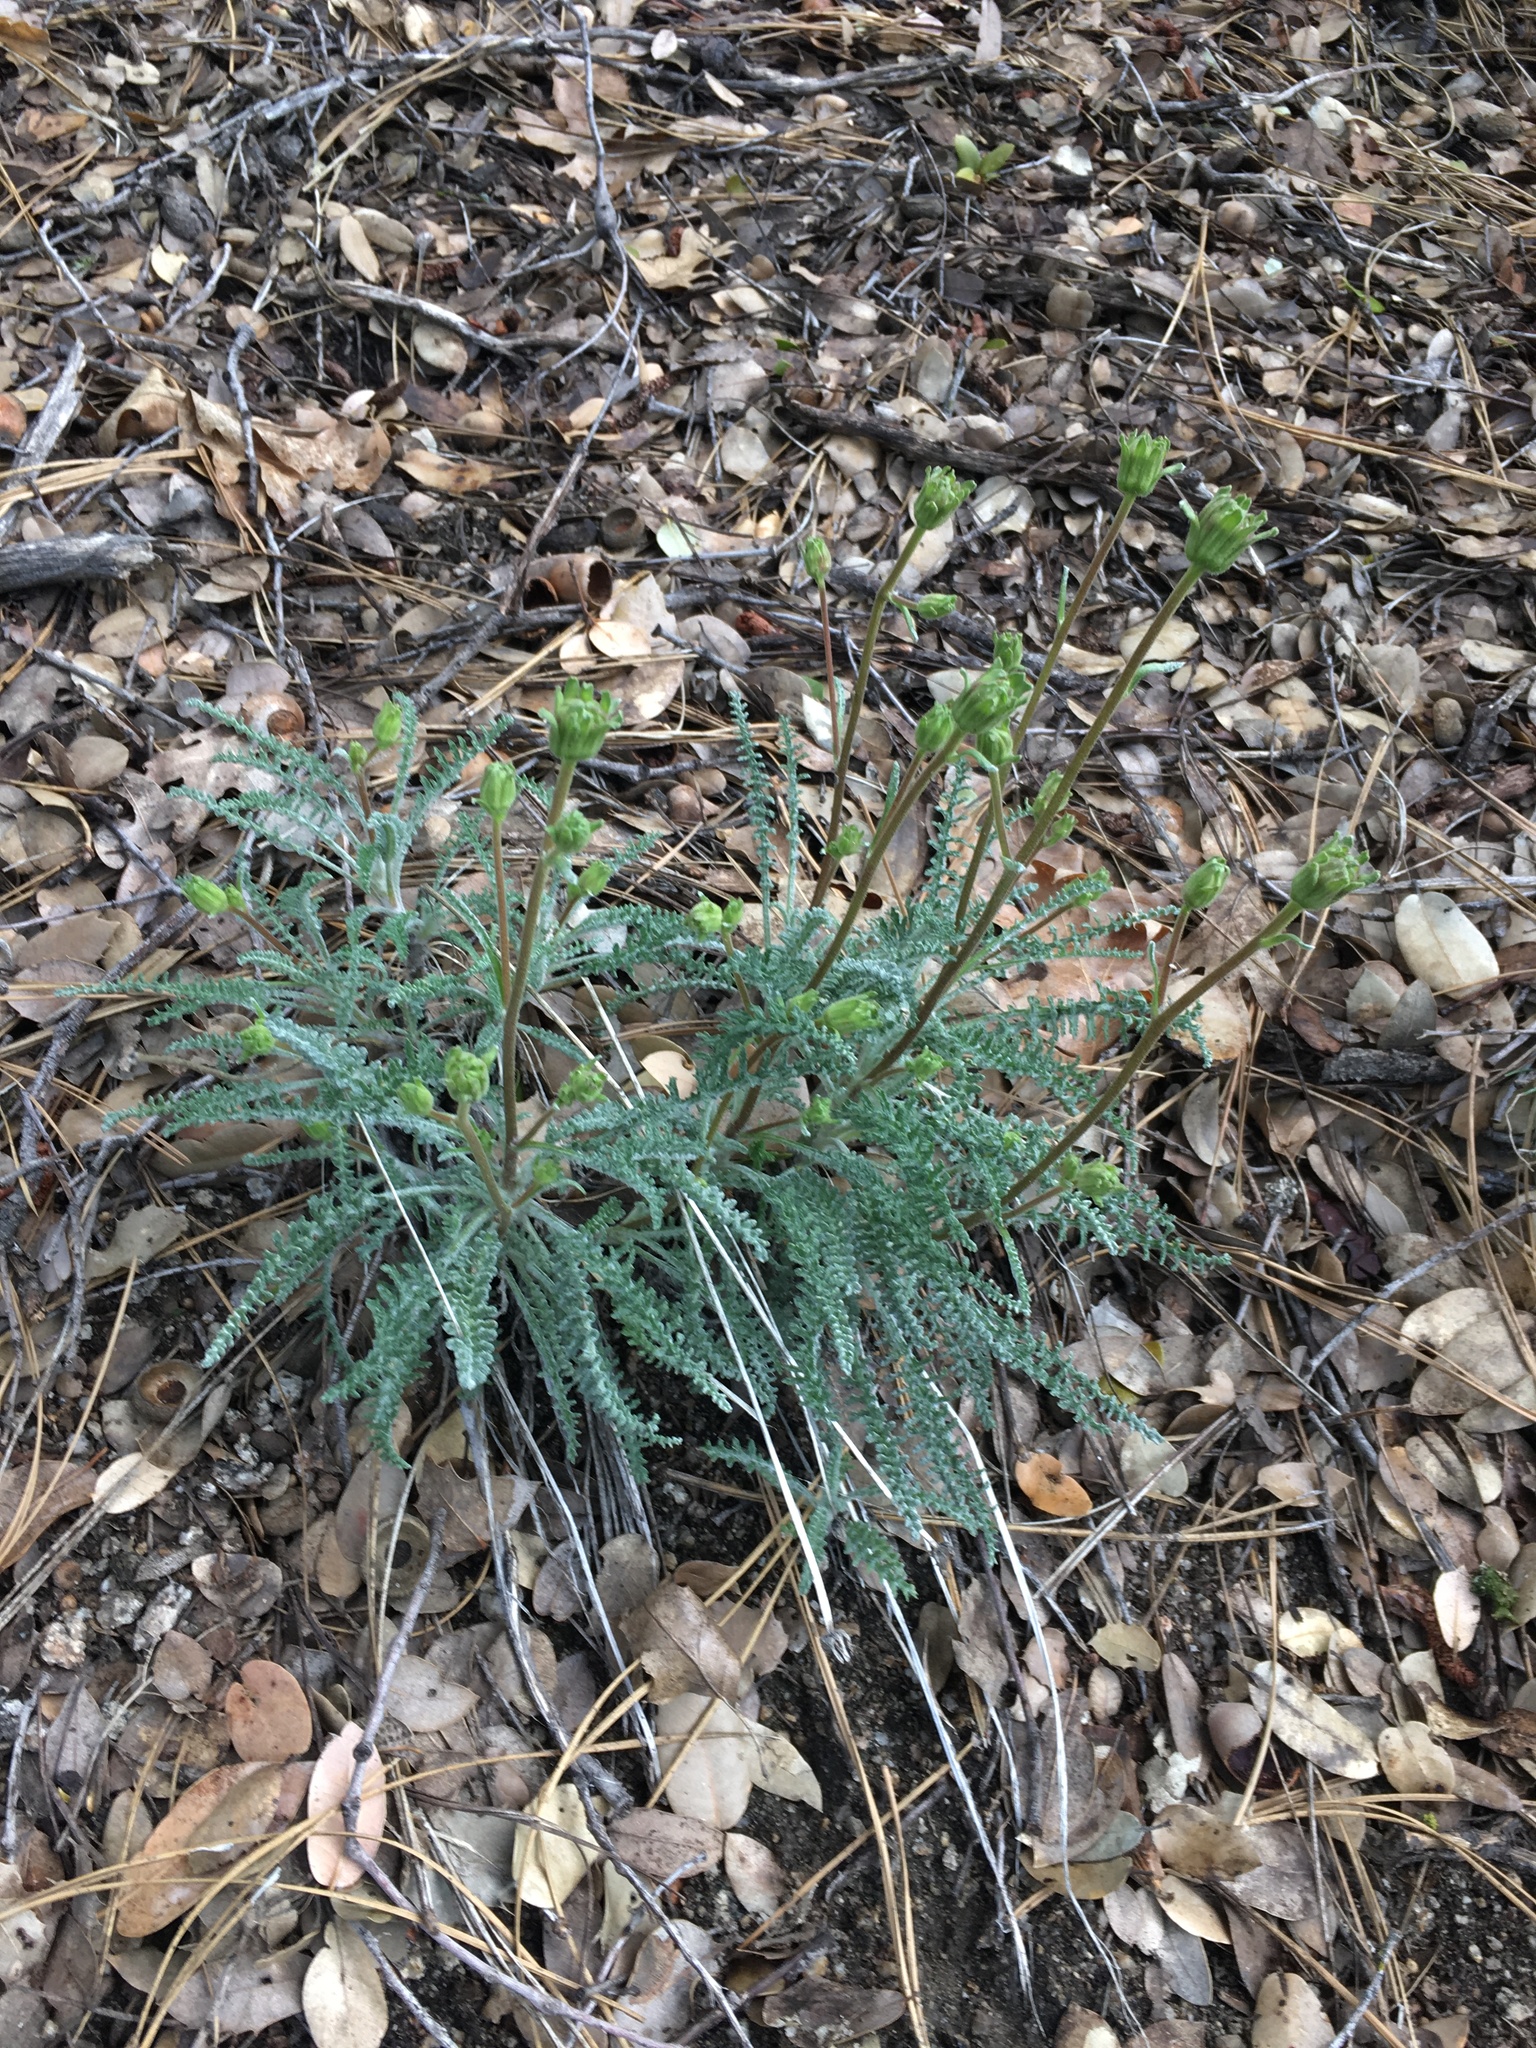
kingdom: Plantae
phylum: Tracheophyta
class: Magnoliopsida
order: Asterales
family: Asteraceae
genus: Chaenactis
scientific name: Chaenactis santolinoides
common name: Santolina pincushion
